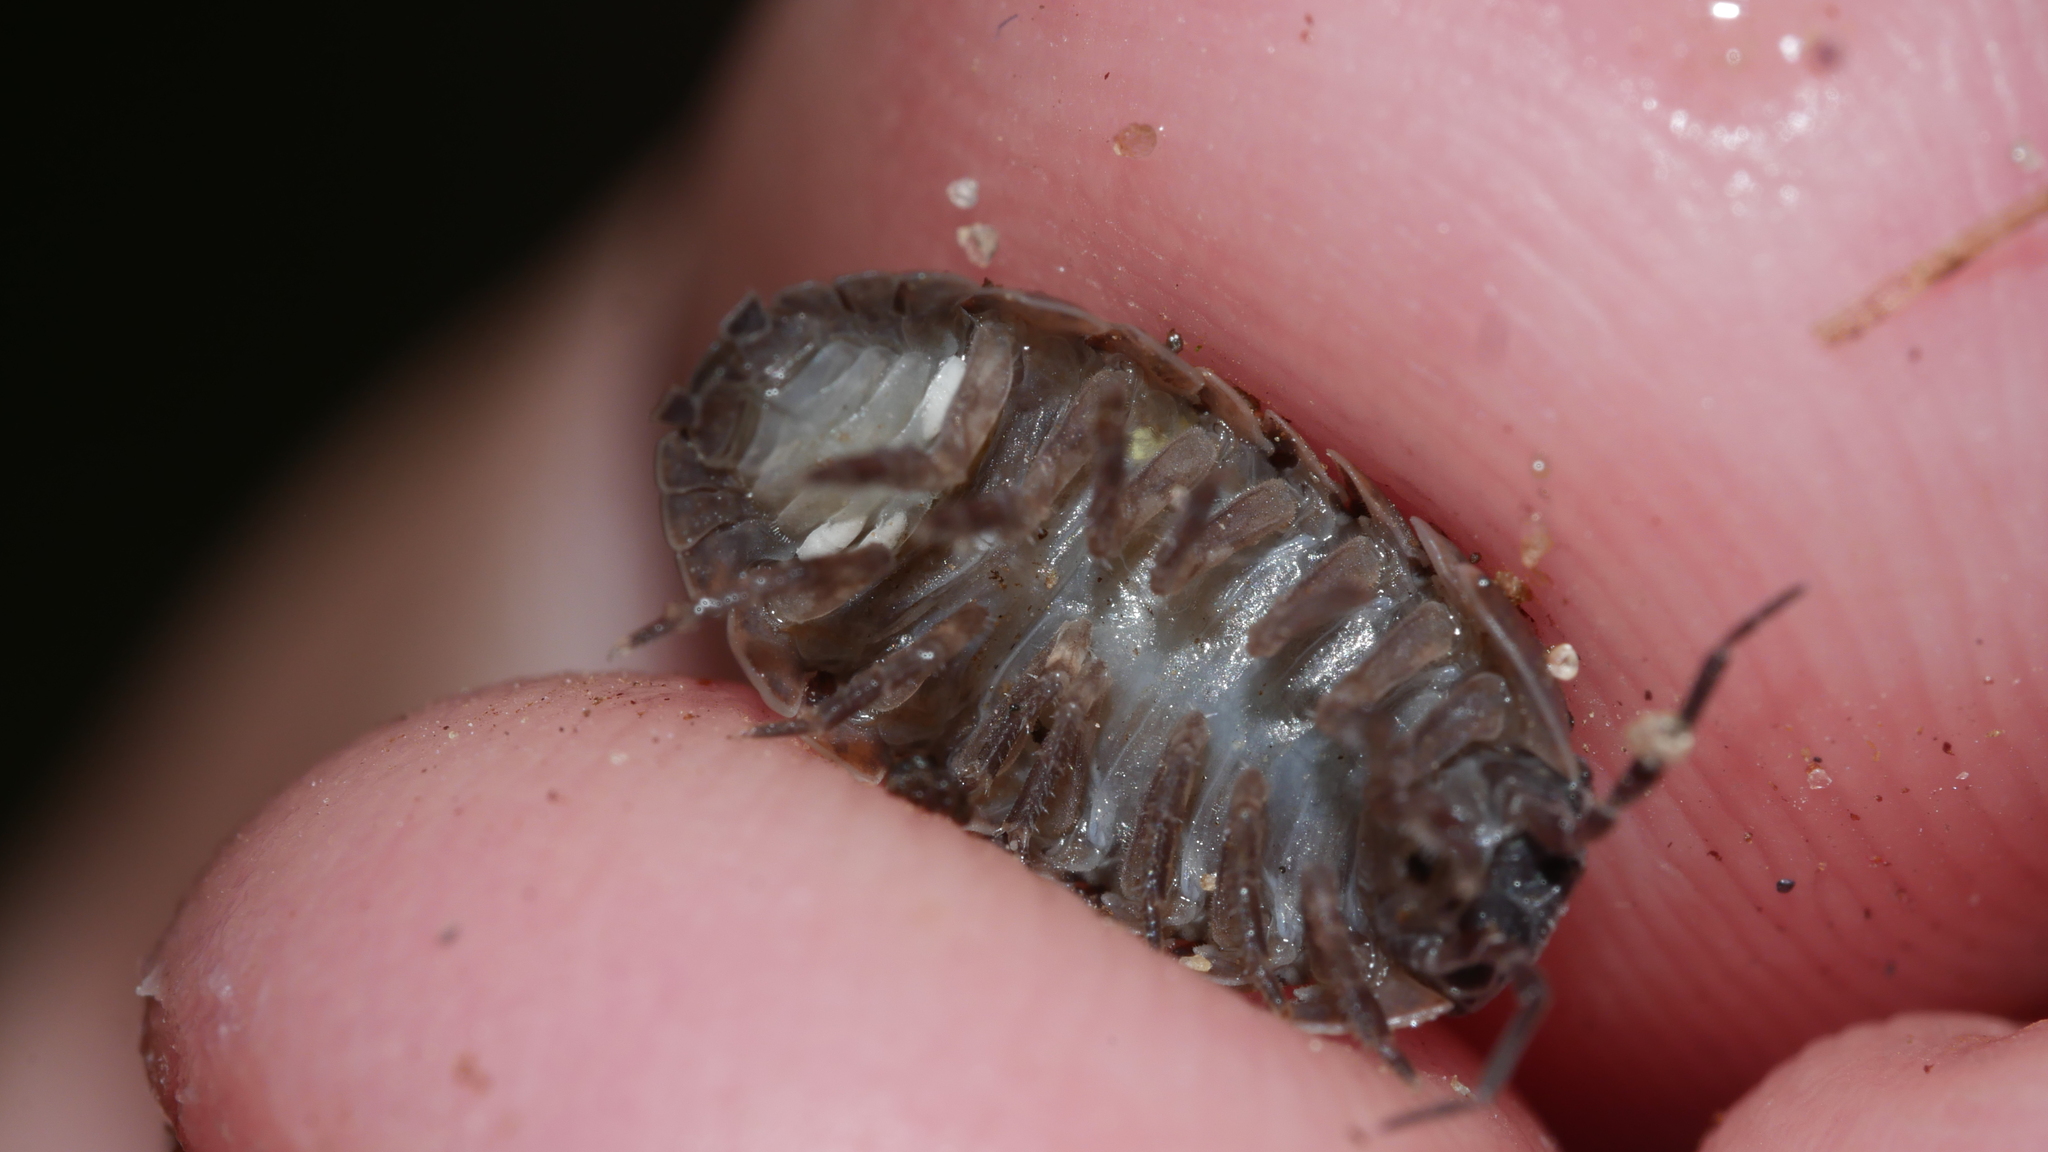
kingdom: Animalia
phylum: Arthropoda
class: Malacostraca
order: Isopoda
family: Armadillidiidae
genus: Armadillidium
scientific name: Armadillidium vulgare
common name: Common pill woodlouse
